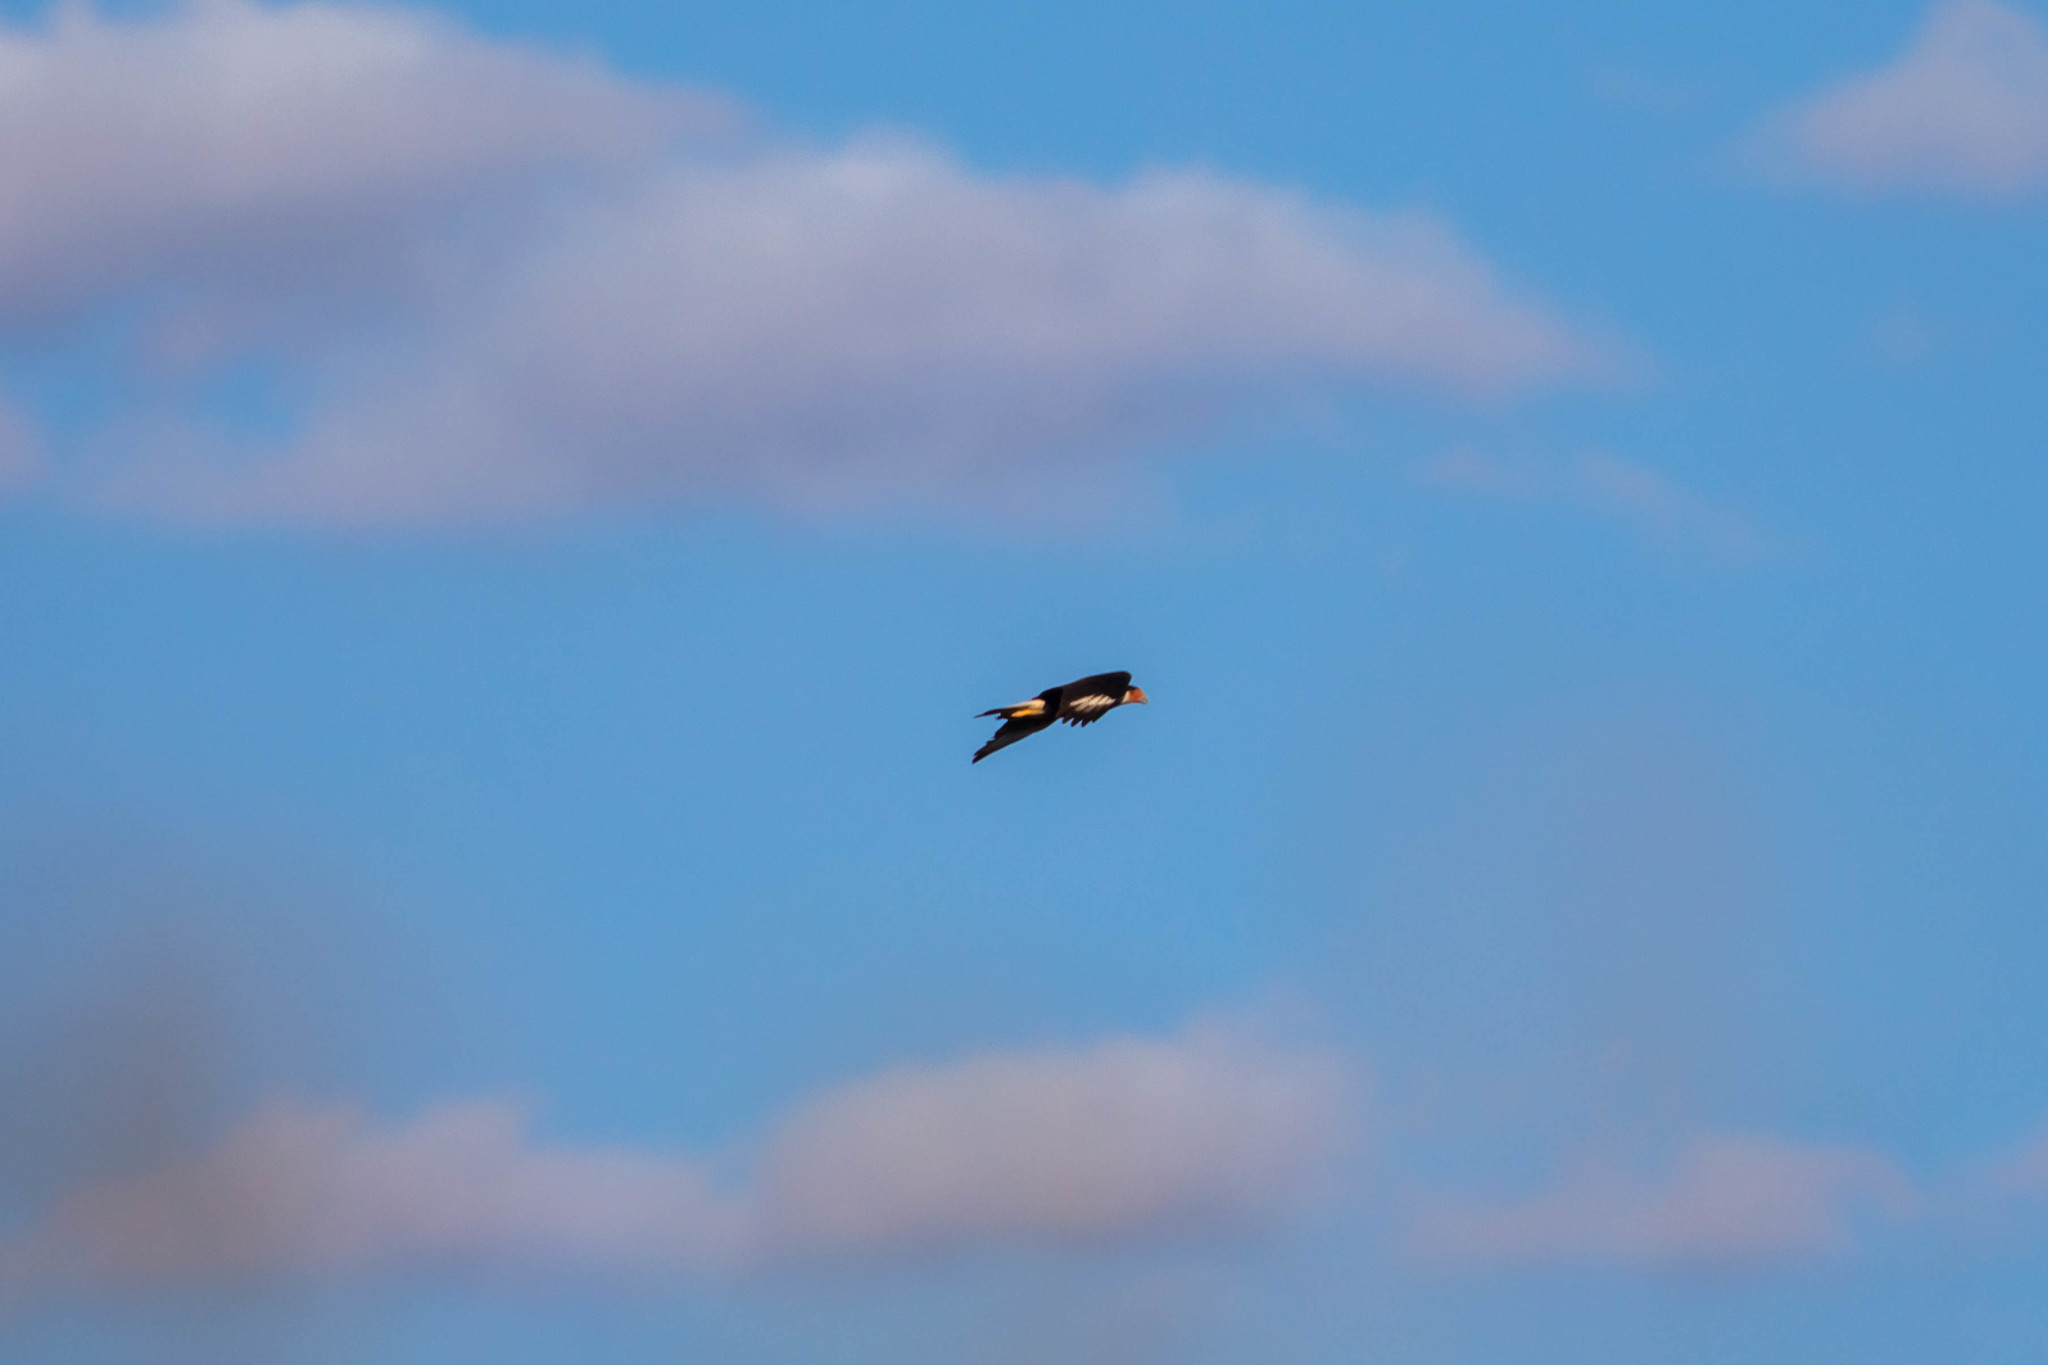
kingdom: Animalia
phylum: Chordata
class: Aves
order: Falconiformes
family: Falconidae
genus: Caracara
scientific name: Caracara plancus
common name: Southern caracara
